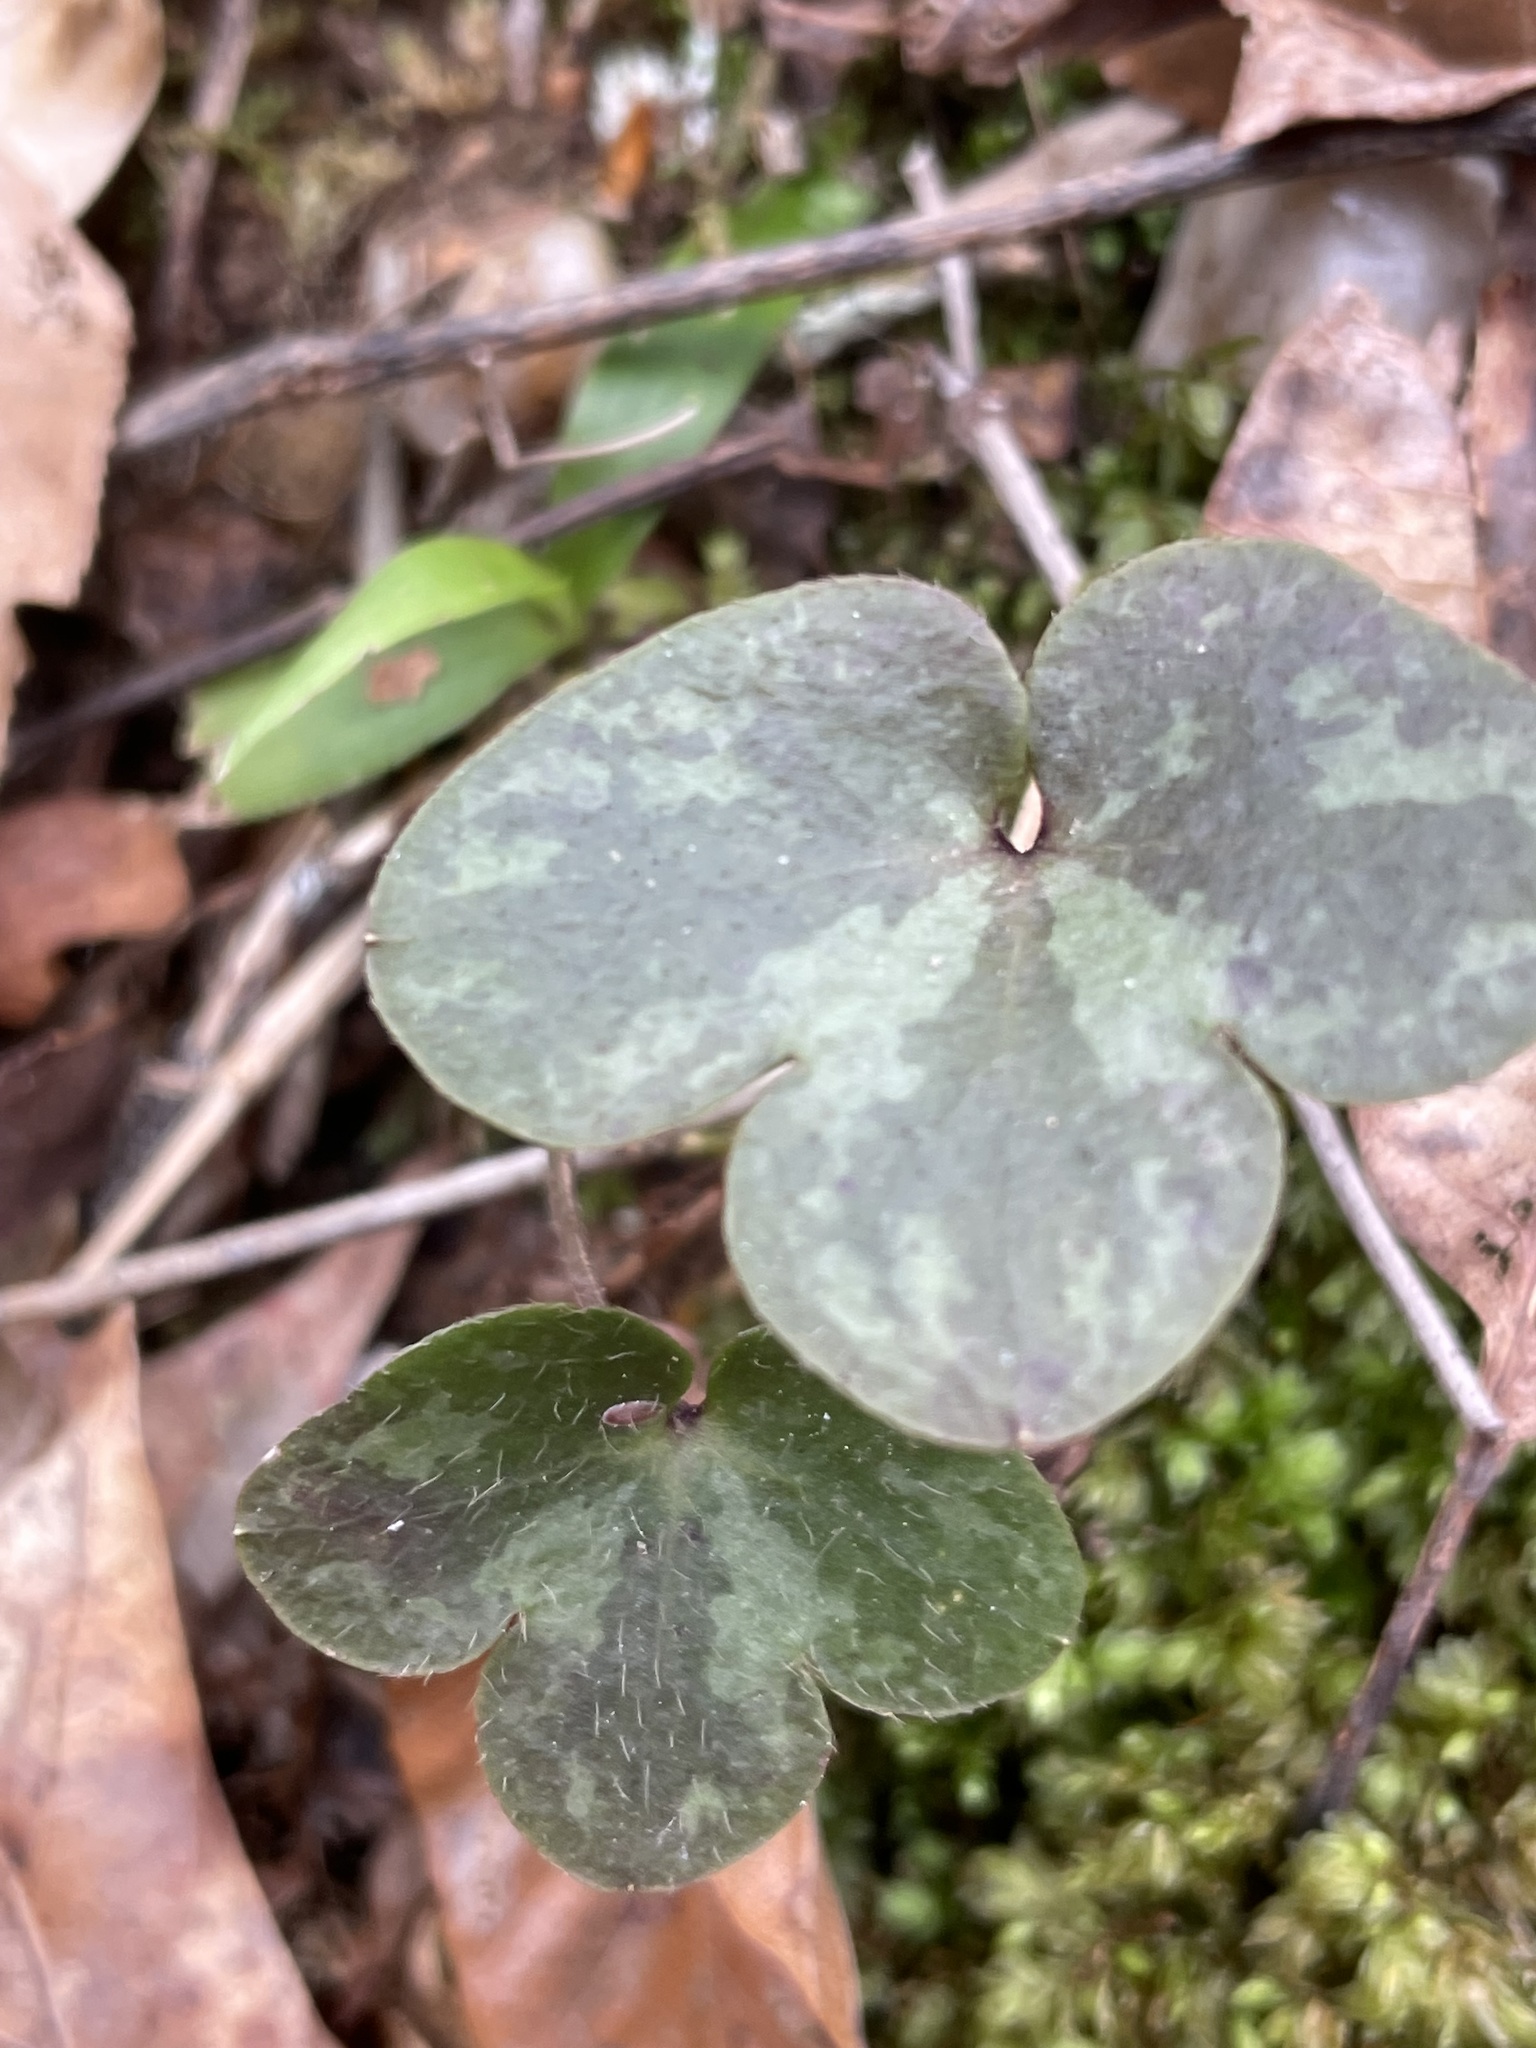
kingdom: Plantae
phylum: Tracheophyta
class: Magnoliopsida
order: Ranunculales
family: Ranunculaceae
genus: Hepatica
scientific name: Hepatica americana
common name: American hepatica
